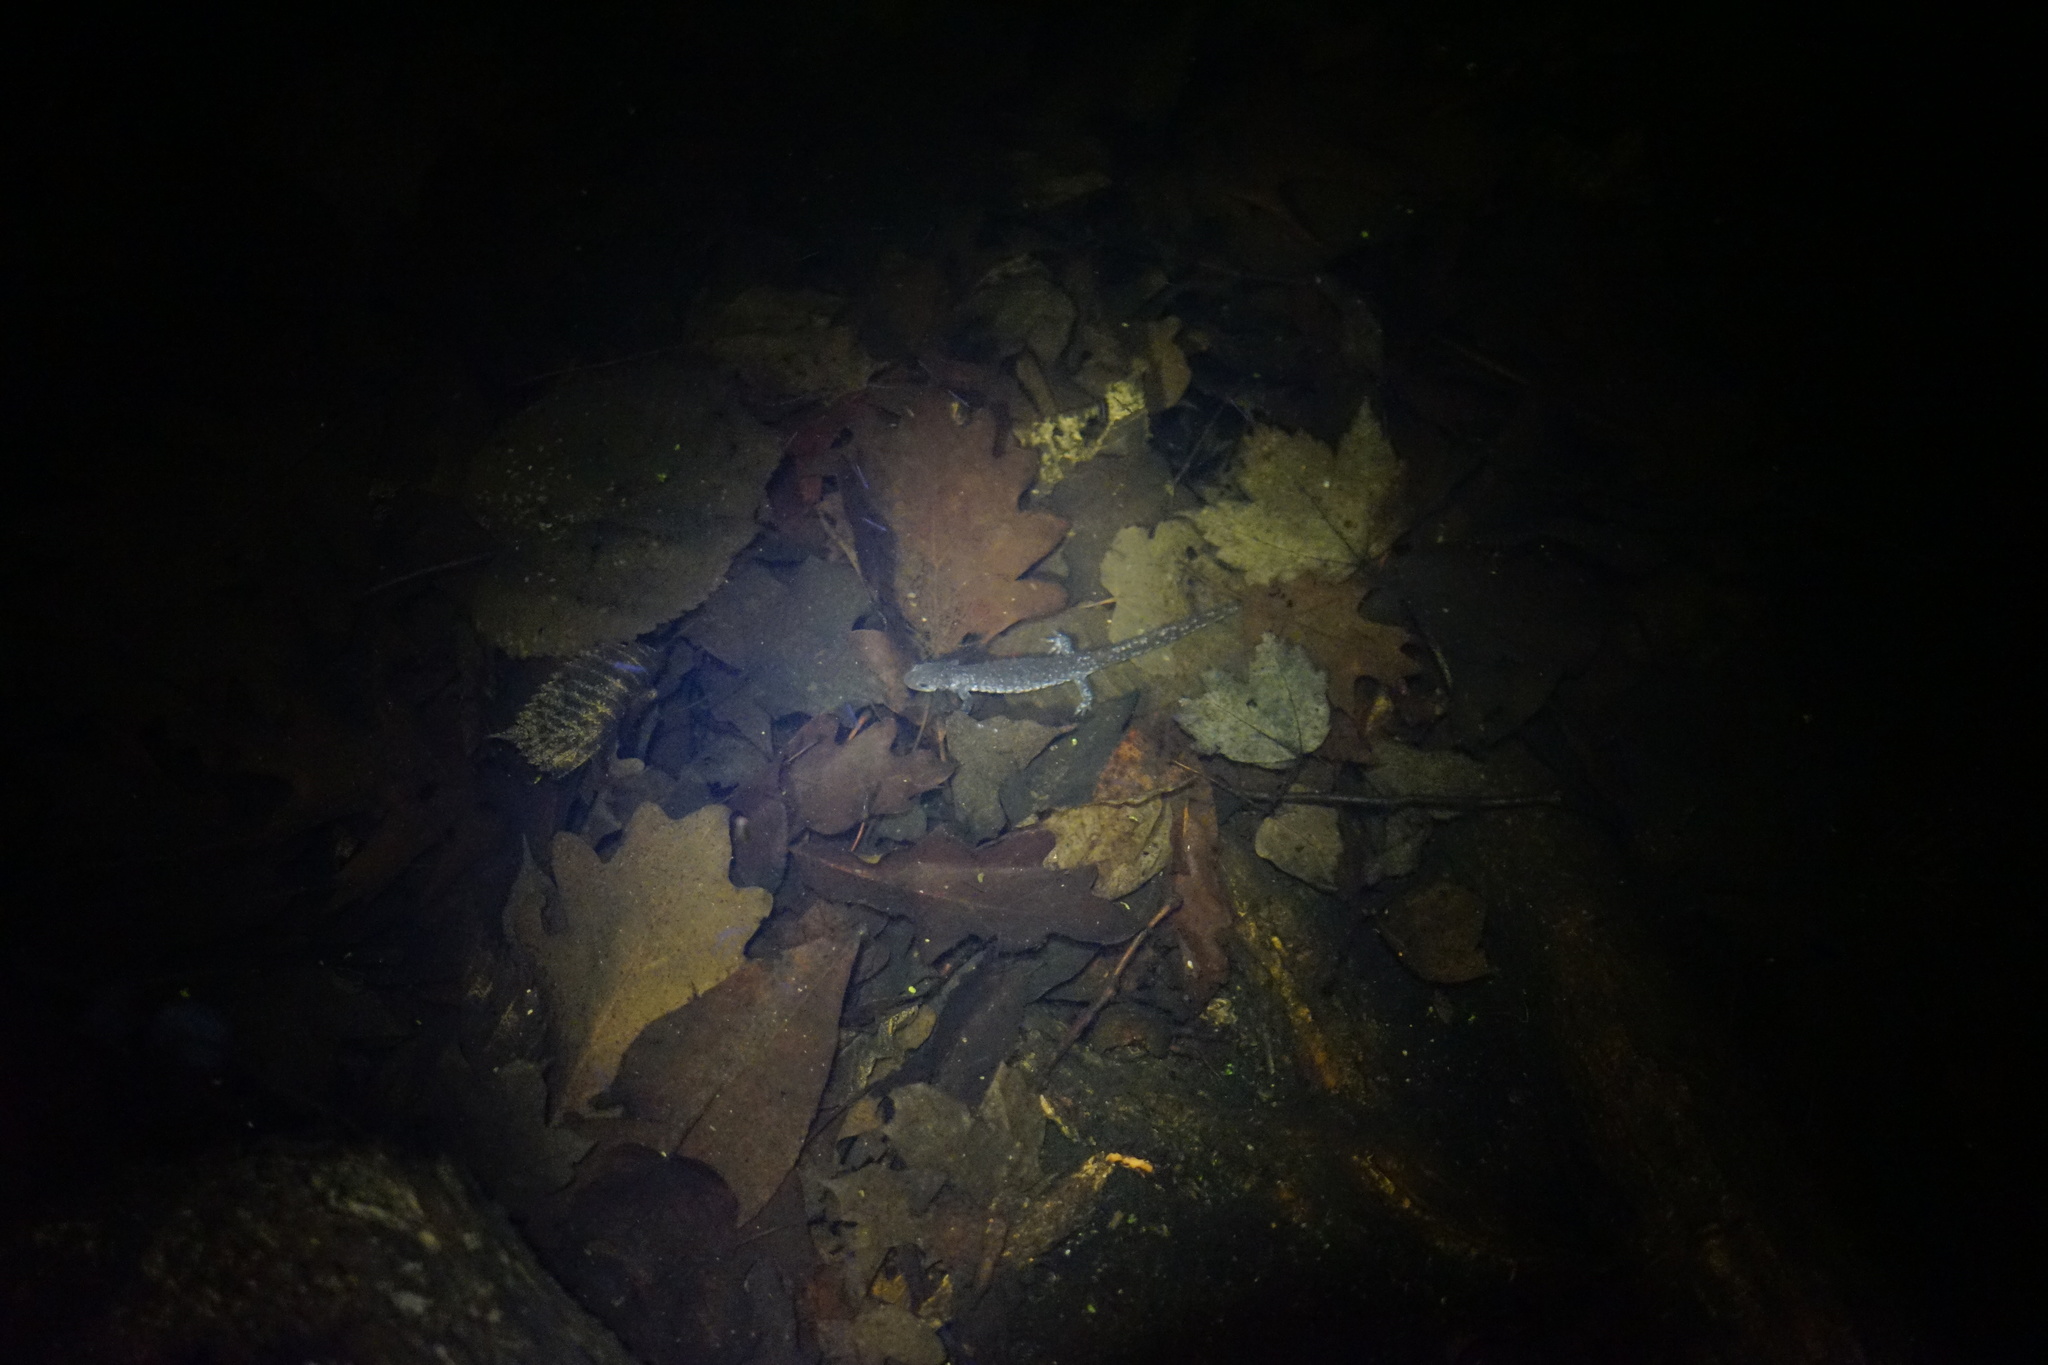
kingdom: Animalia
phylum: Chordata
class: Amphibia
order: Caudata
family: Ambystomatidae
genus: Ambystoma
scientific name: Ambystoma laterale
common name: Blue-spotted salamander
